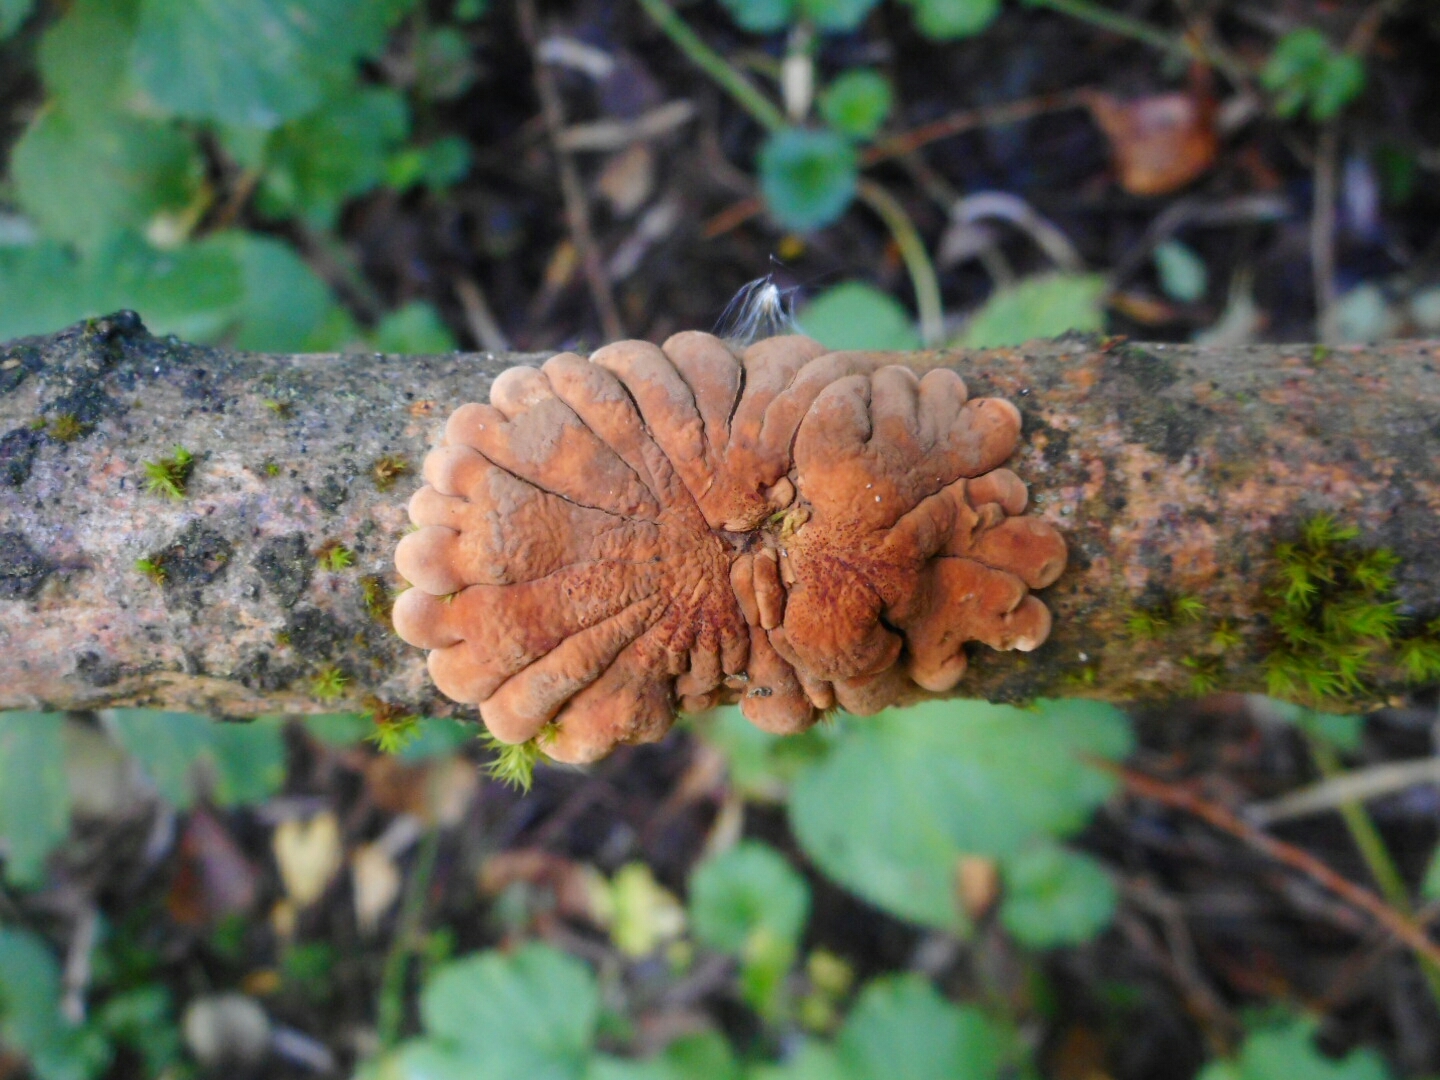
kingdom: Fungi
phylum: Ascomycota
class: Sordariomycetes
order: Hypocreales
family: Hypocreaceae
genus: Hypocreopsis
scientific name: Hypocreopsis lichenoides
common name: Willow gloves
